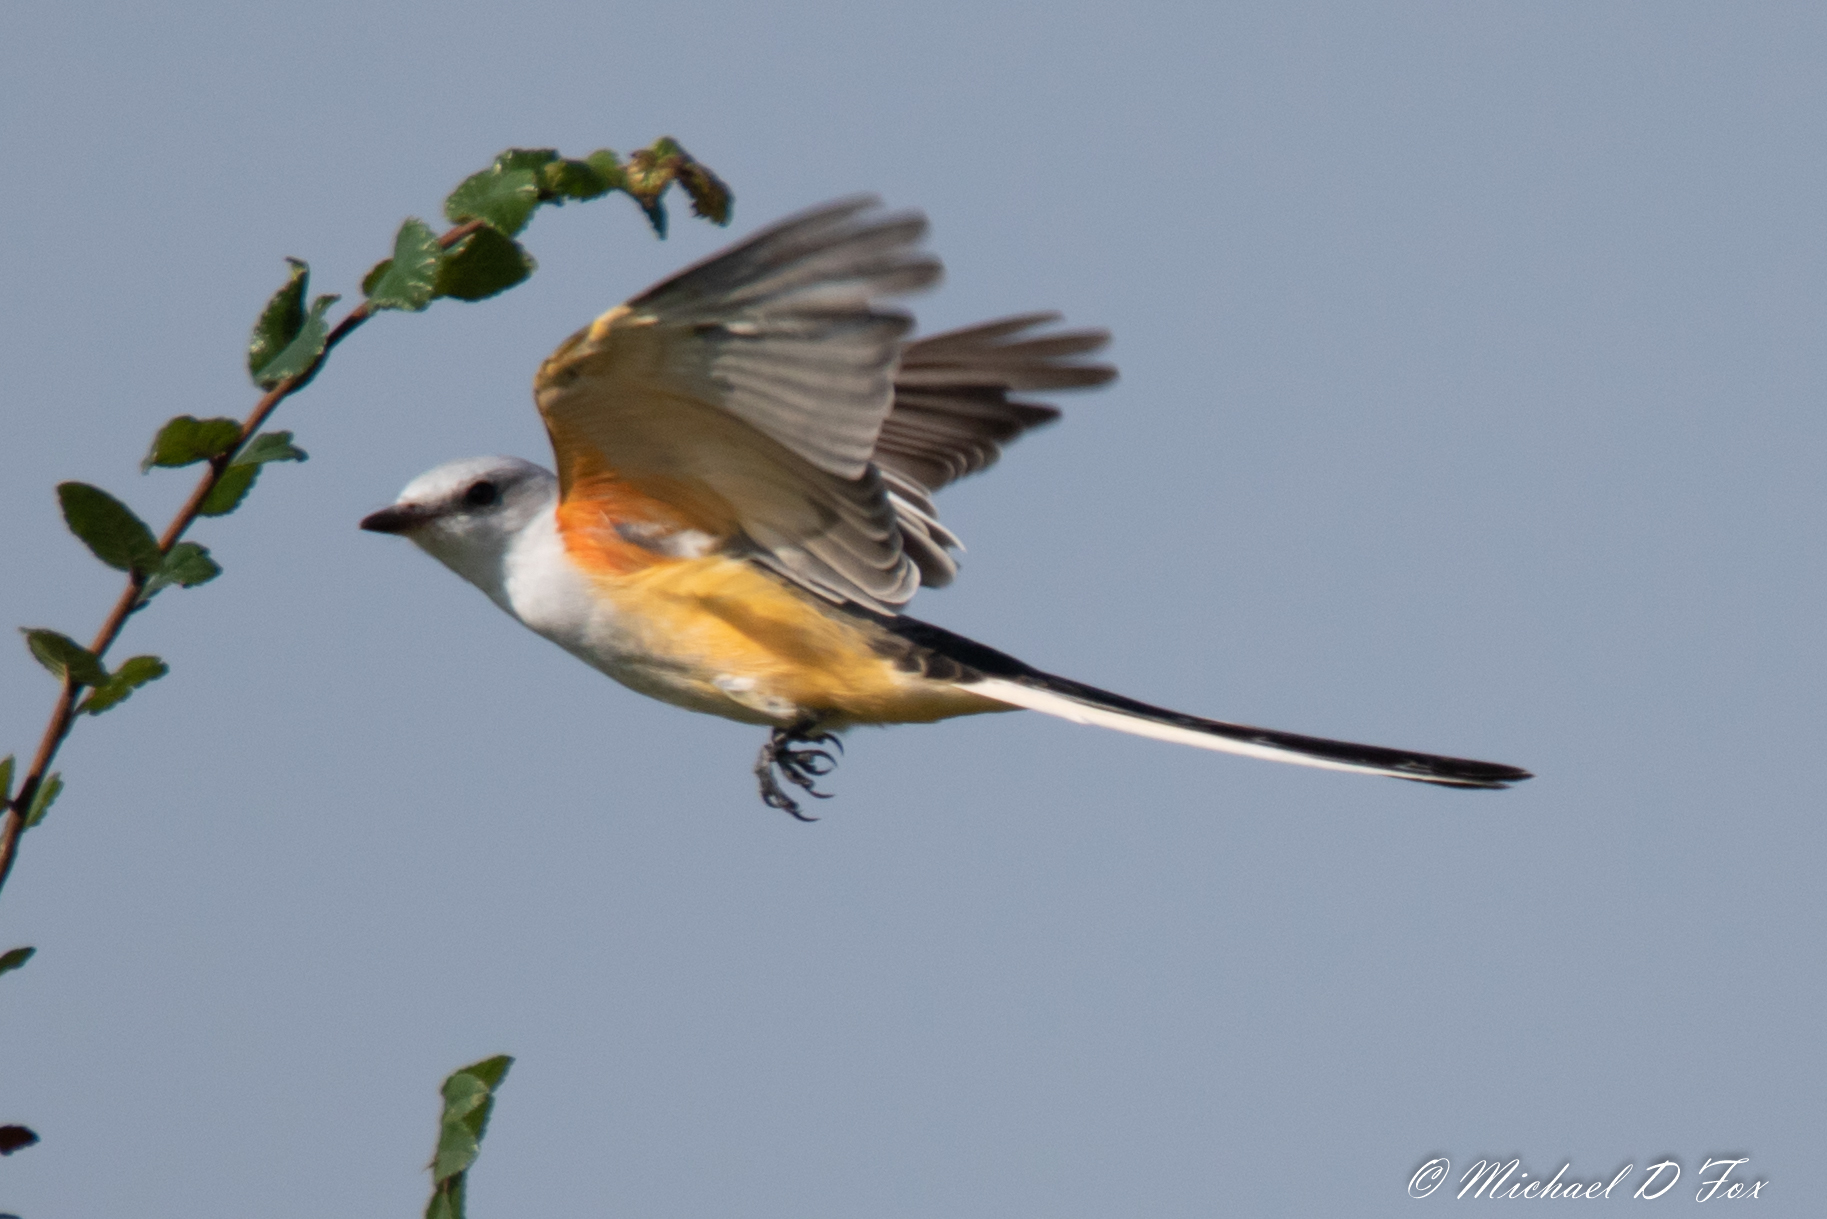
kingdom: Animalia
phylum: Chordata
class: Aves
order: Passeriformes
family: Tyrannidae
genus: Tyrannus
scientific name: Tyrannus forficatus
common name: Scissor-tailed flycatcher
